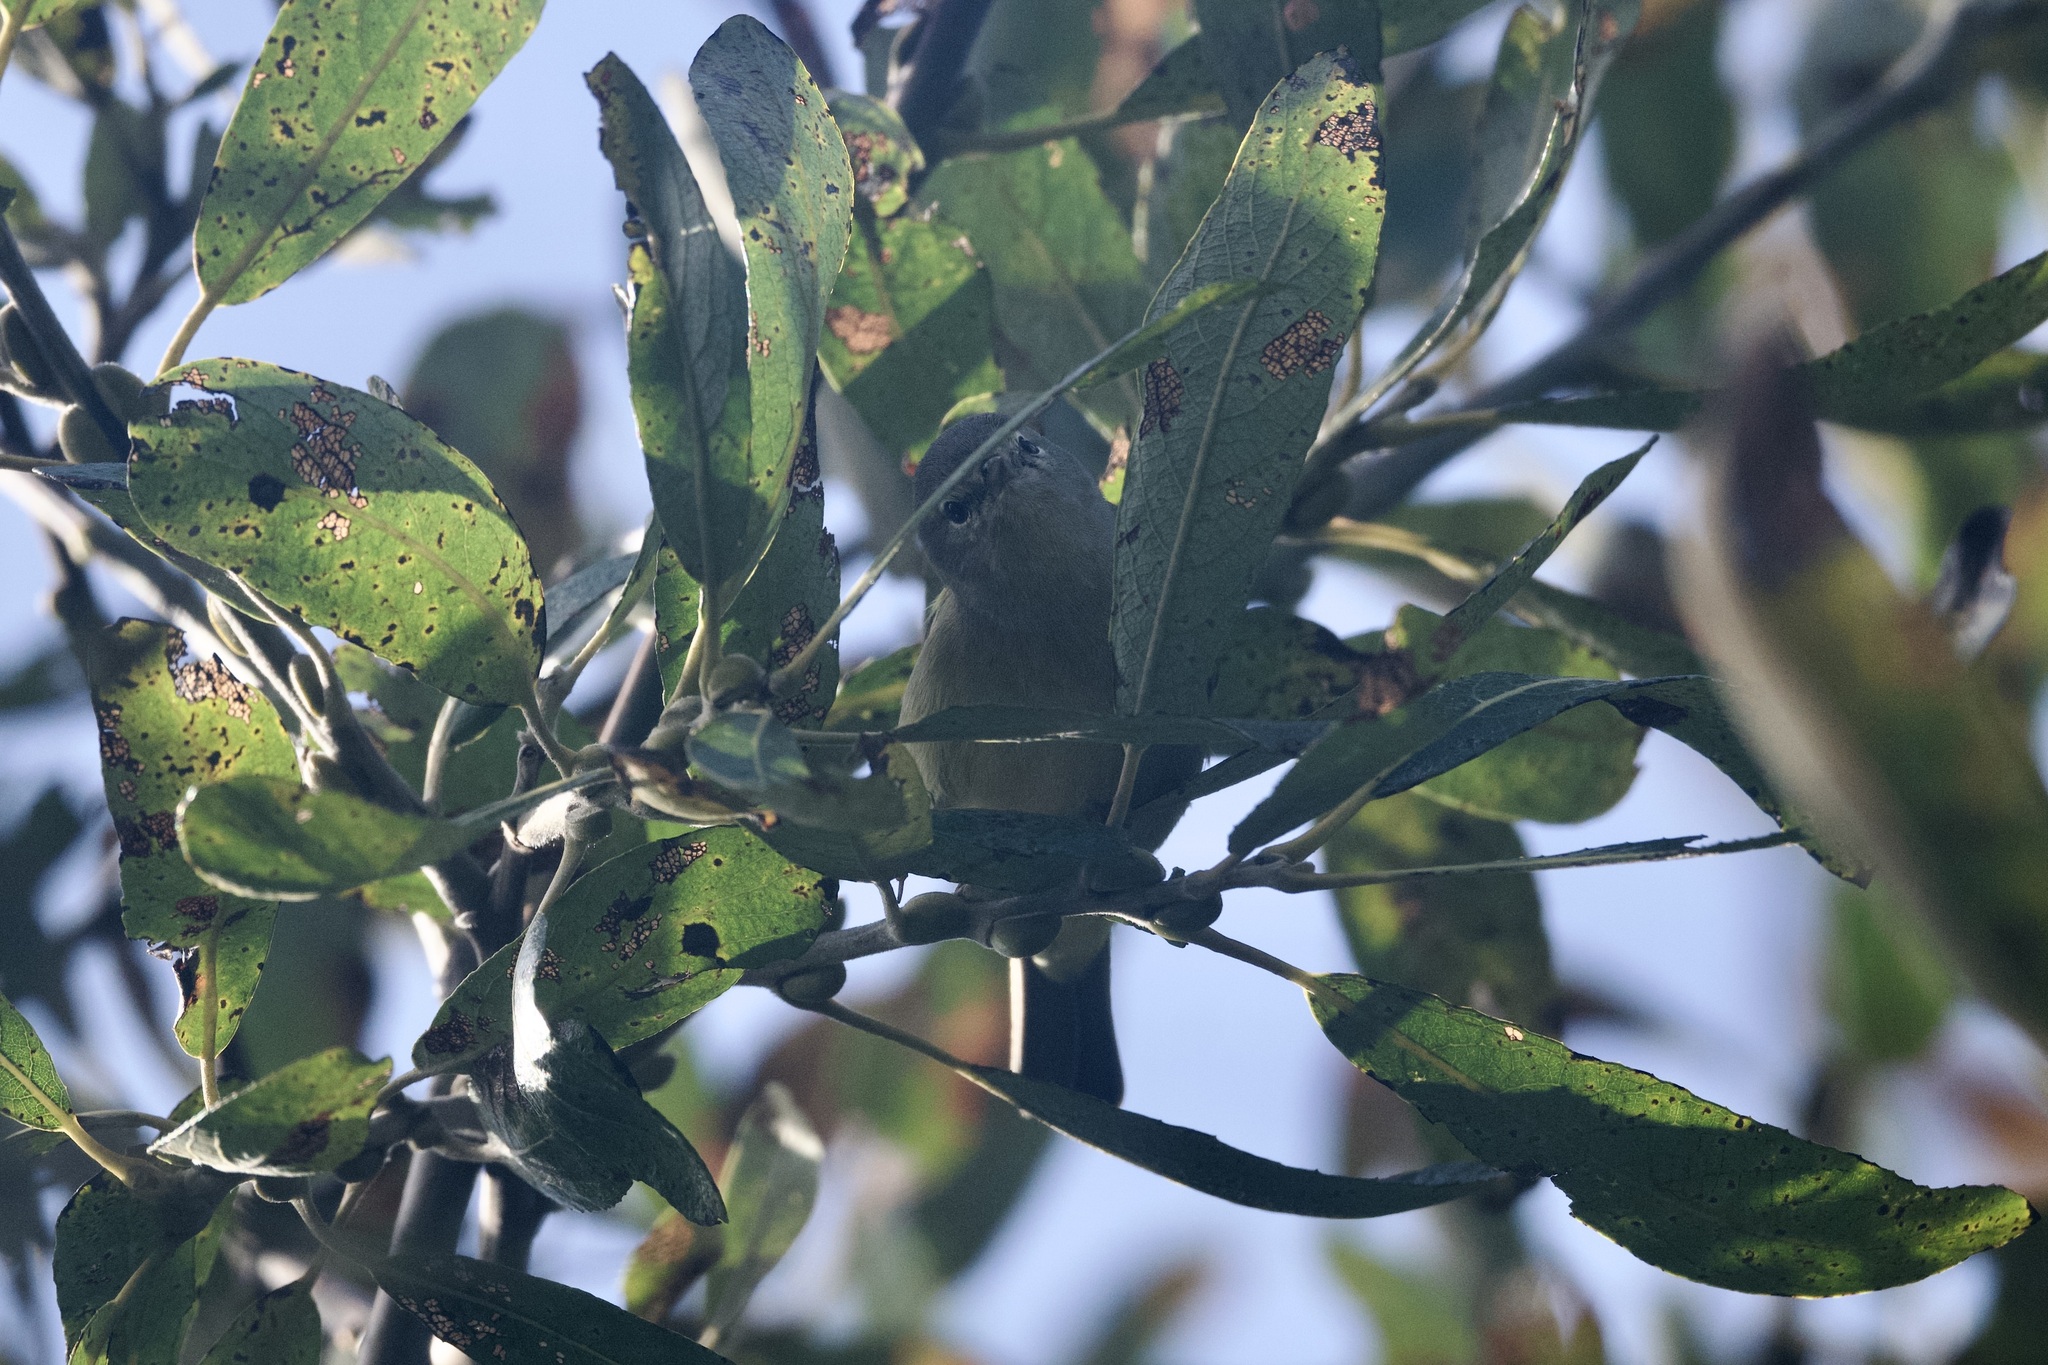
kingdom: Animalia
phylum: Chordata
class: Aves
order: Passeriformes
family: Parulidae
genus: Leiothlypis
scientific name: Leiothlypis celata
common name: Orange-crowned warbler
